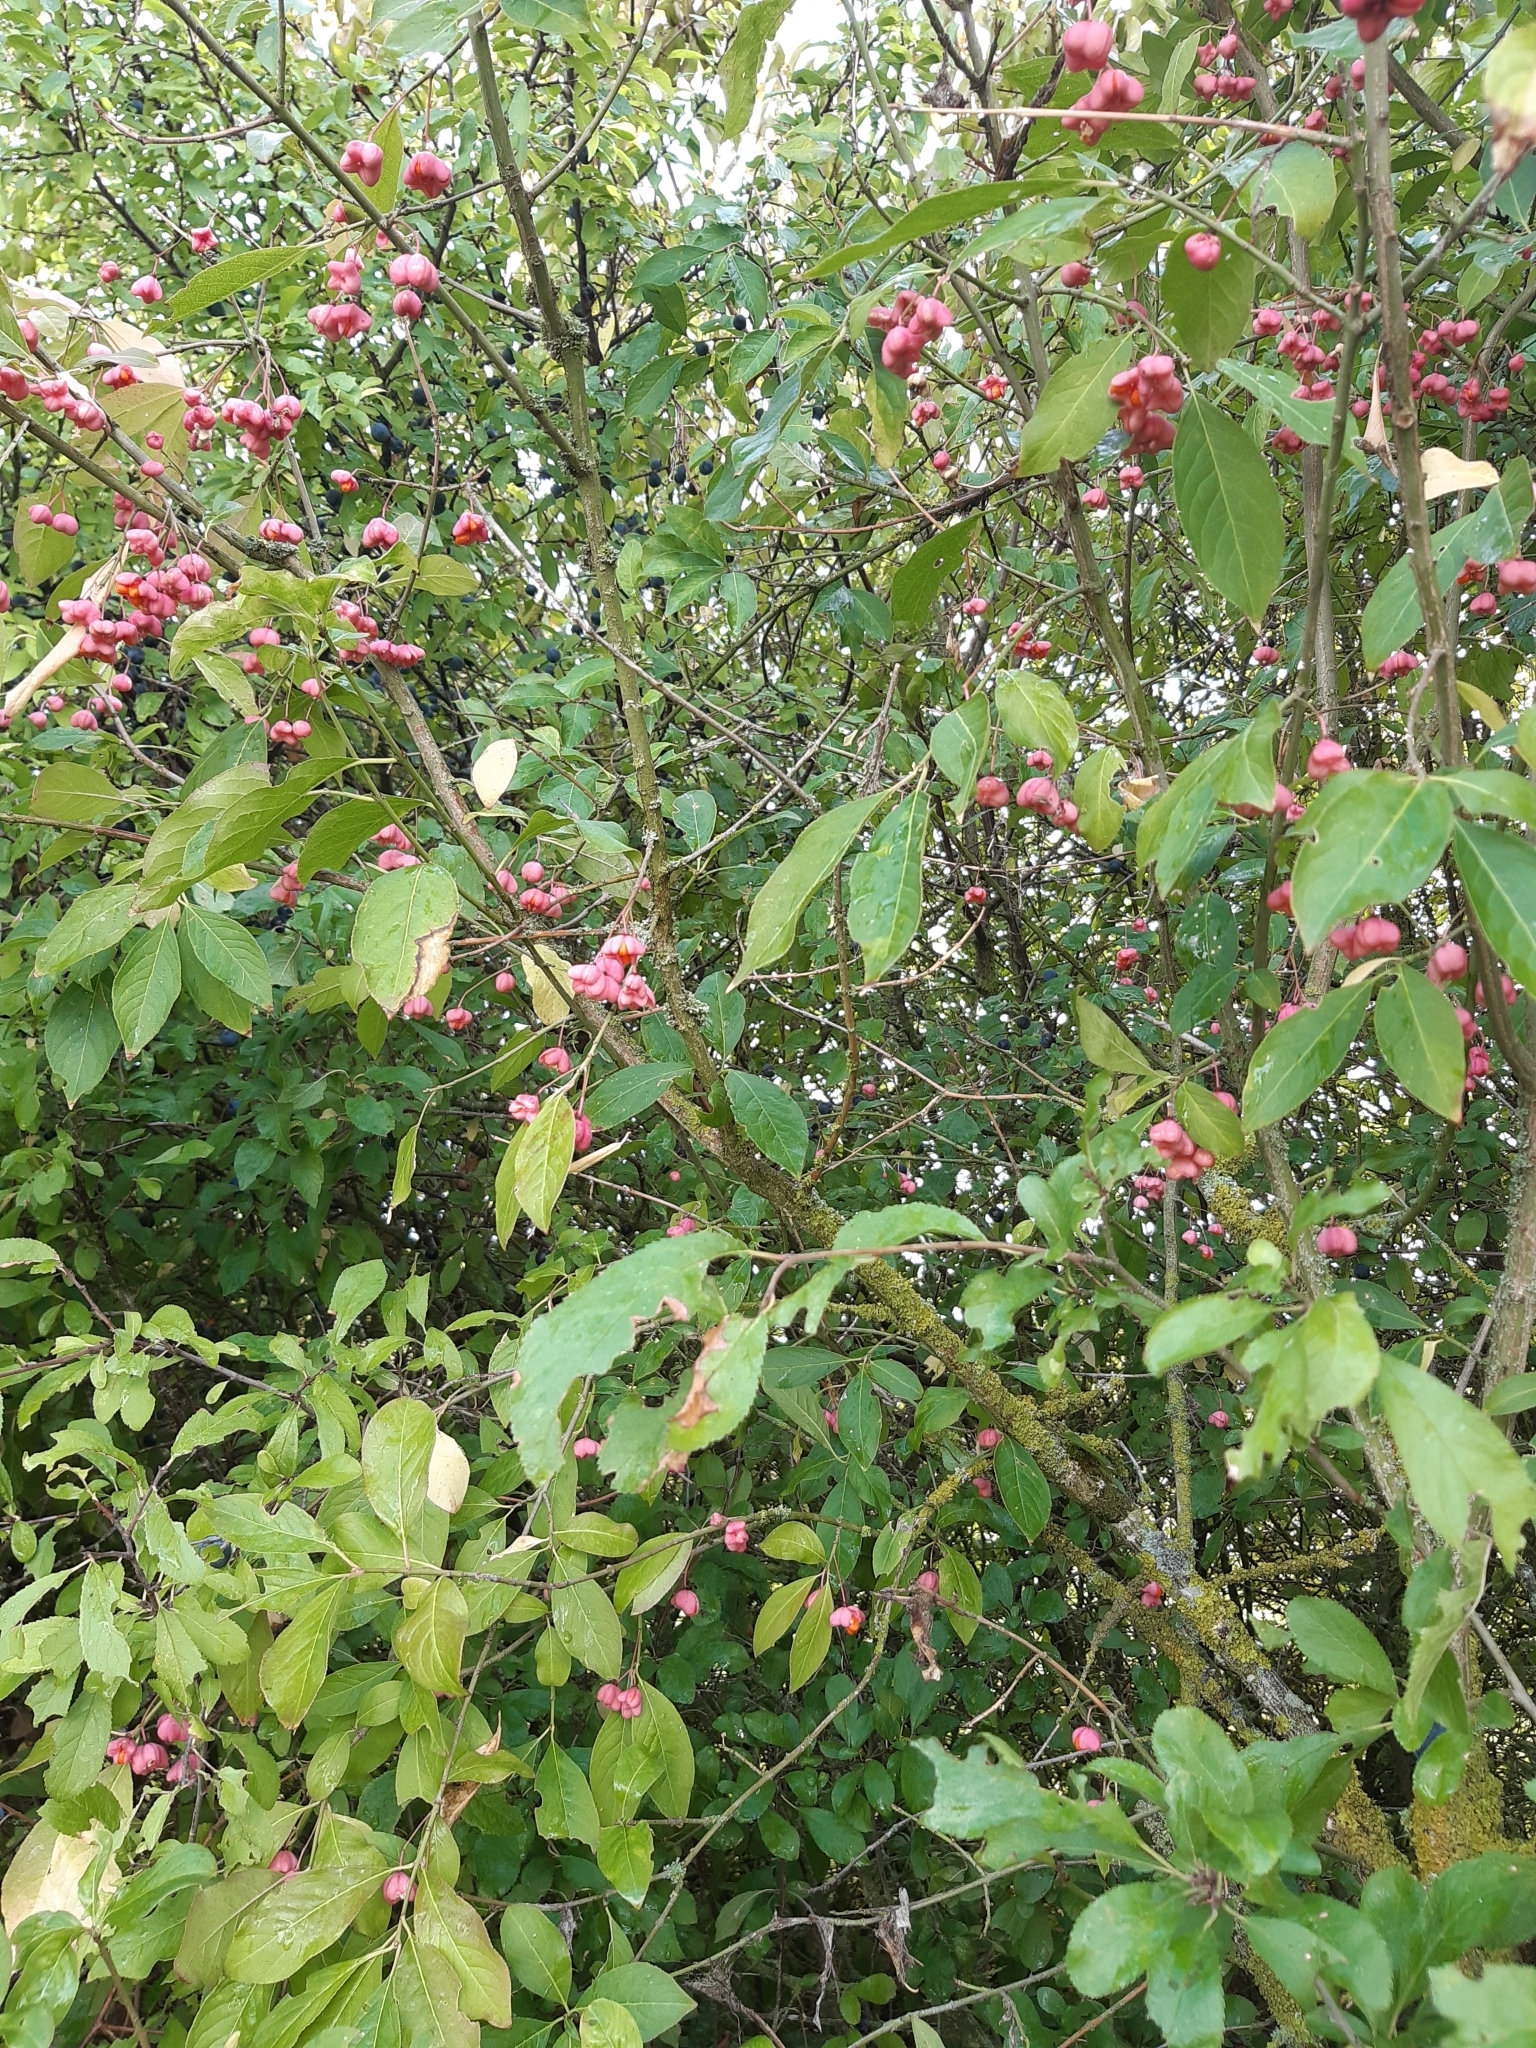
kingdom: Plantae
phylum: Tracheophyta
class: Magnoliopsida
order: Celastrales
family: Celastraceae
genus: Euonymus
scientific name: Euonymus europaeus
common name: Spindle
